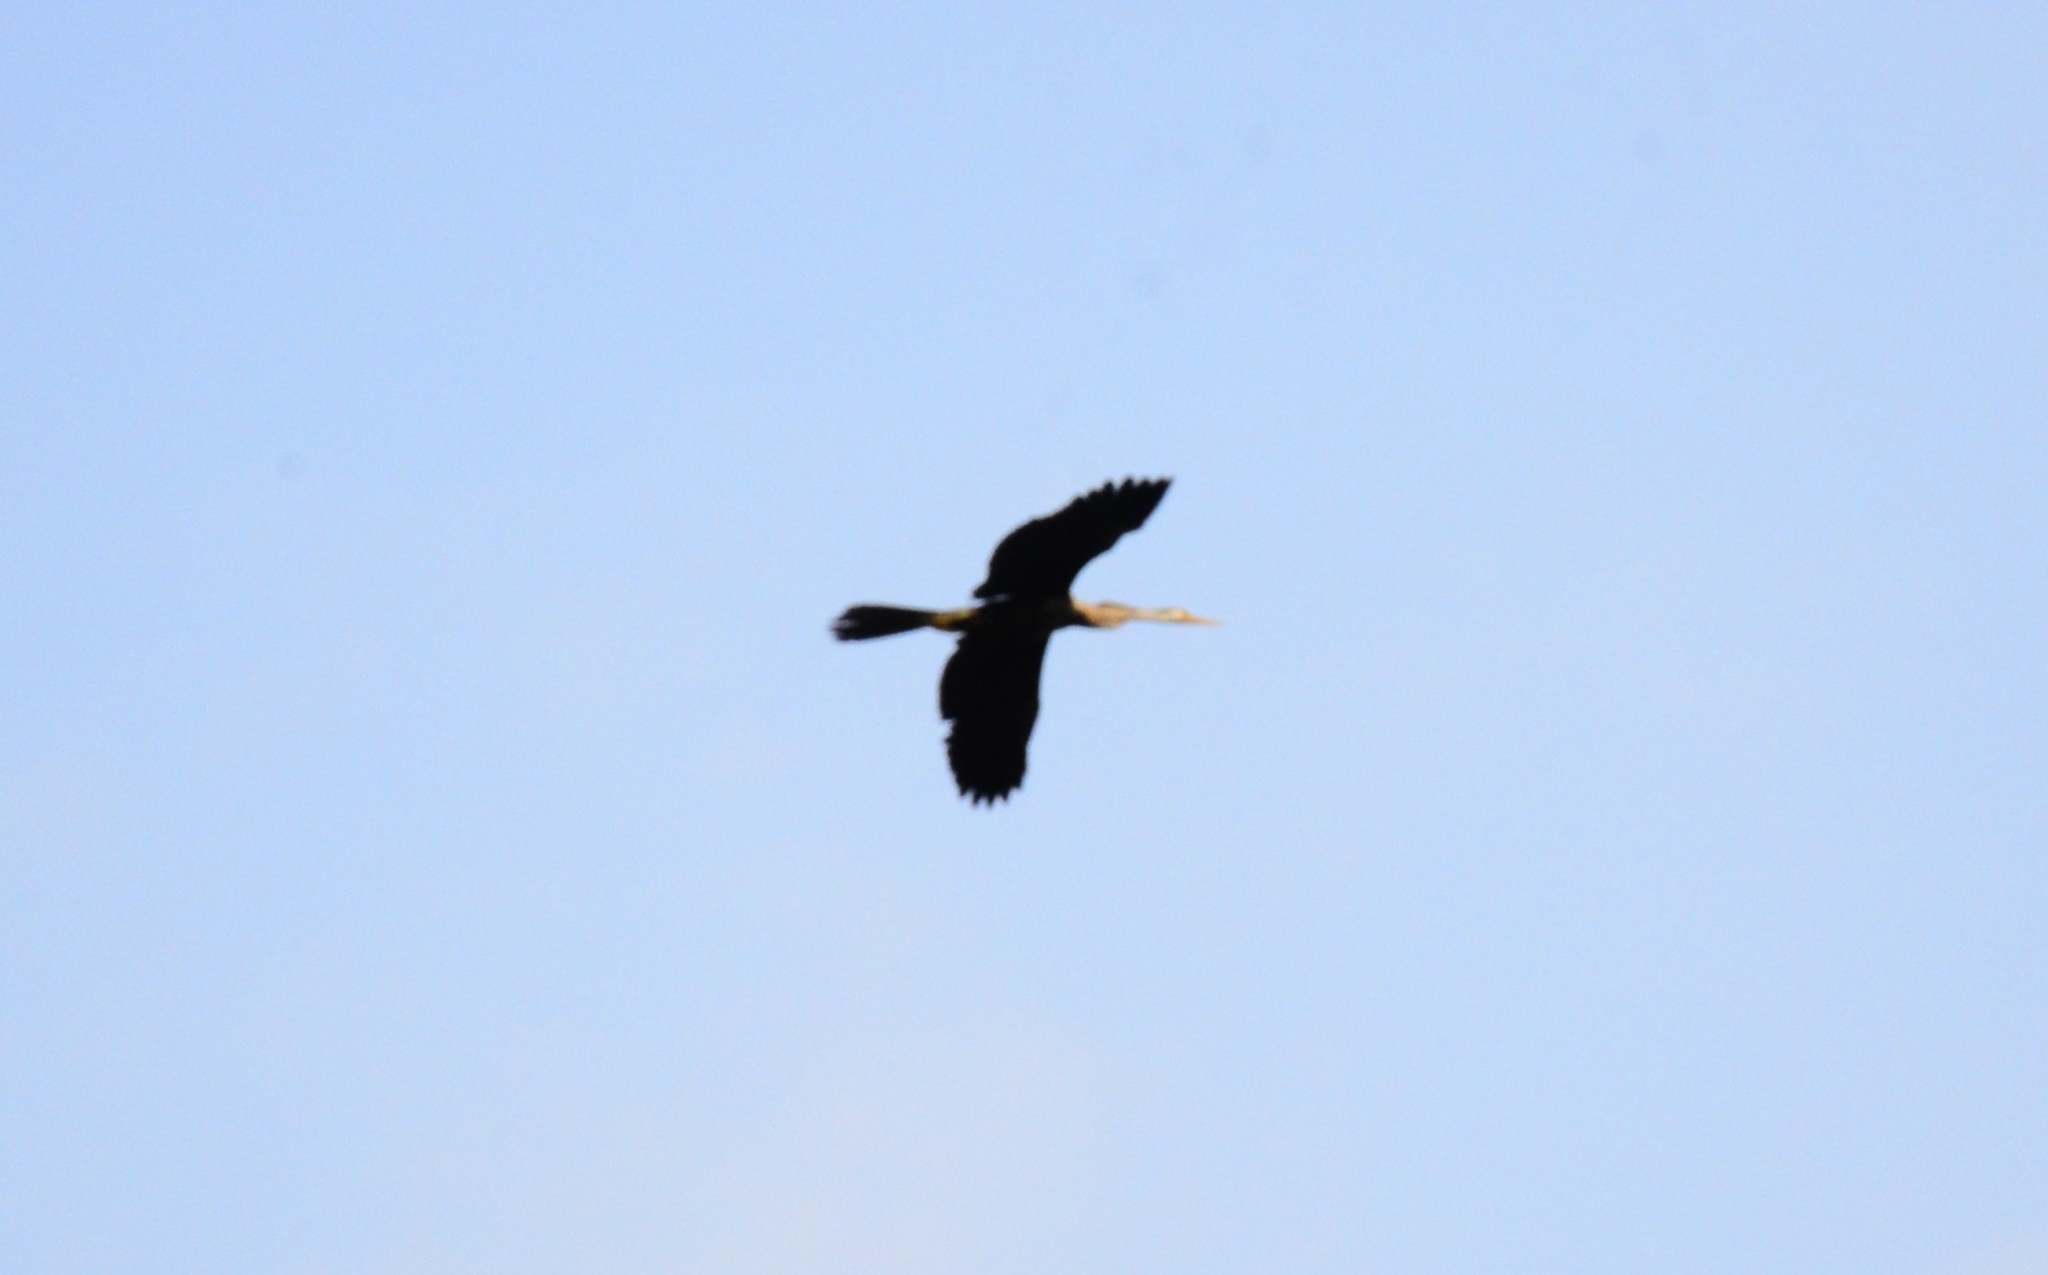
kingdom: Animalia
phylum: Chordata
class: Aves
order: Suliformes
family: Anhingidae
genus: Anhinga
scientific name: Anhinga melanogaster
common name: Oriental darter
